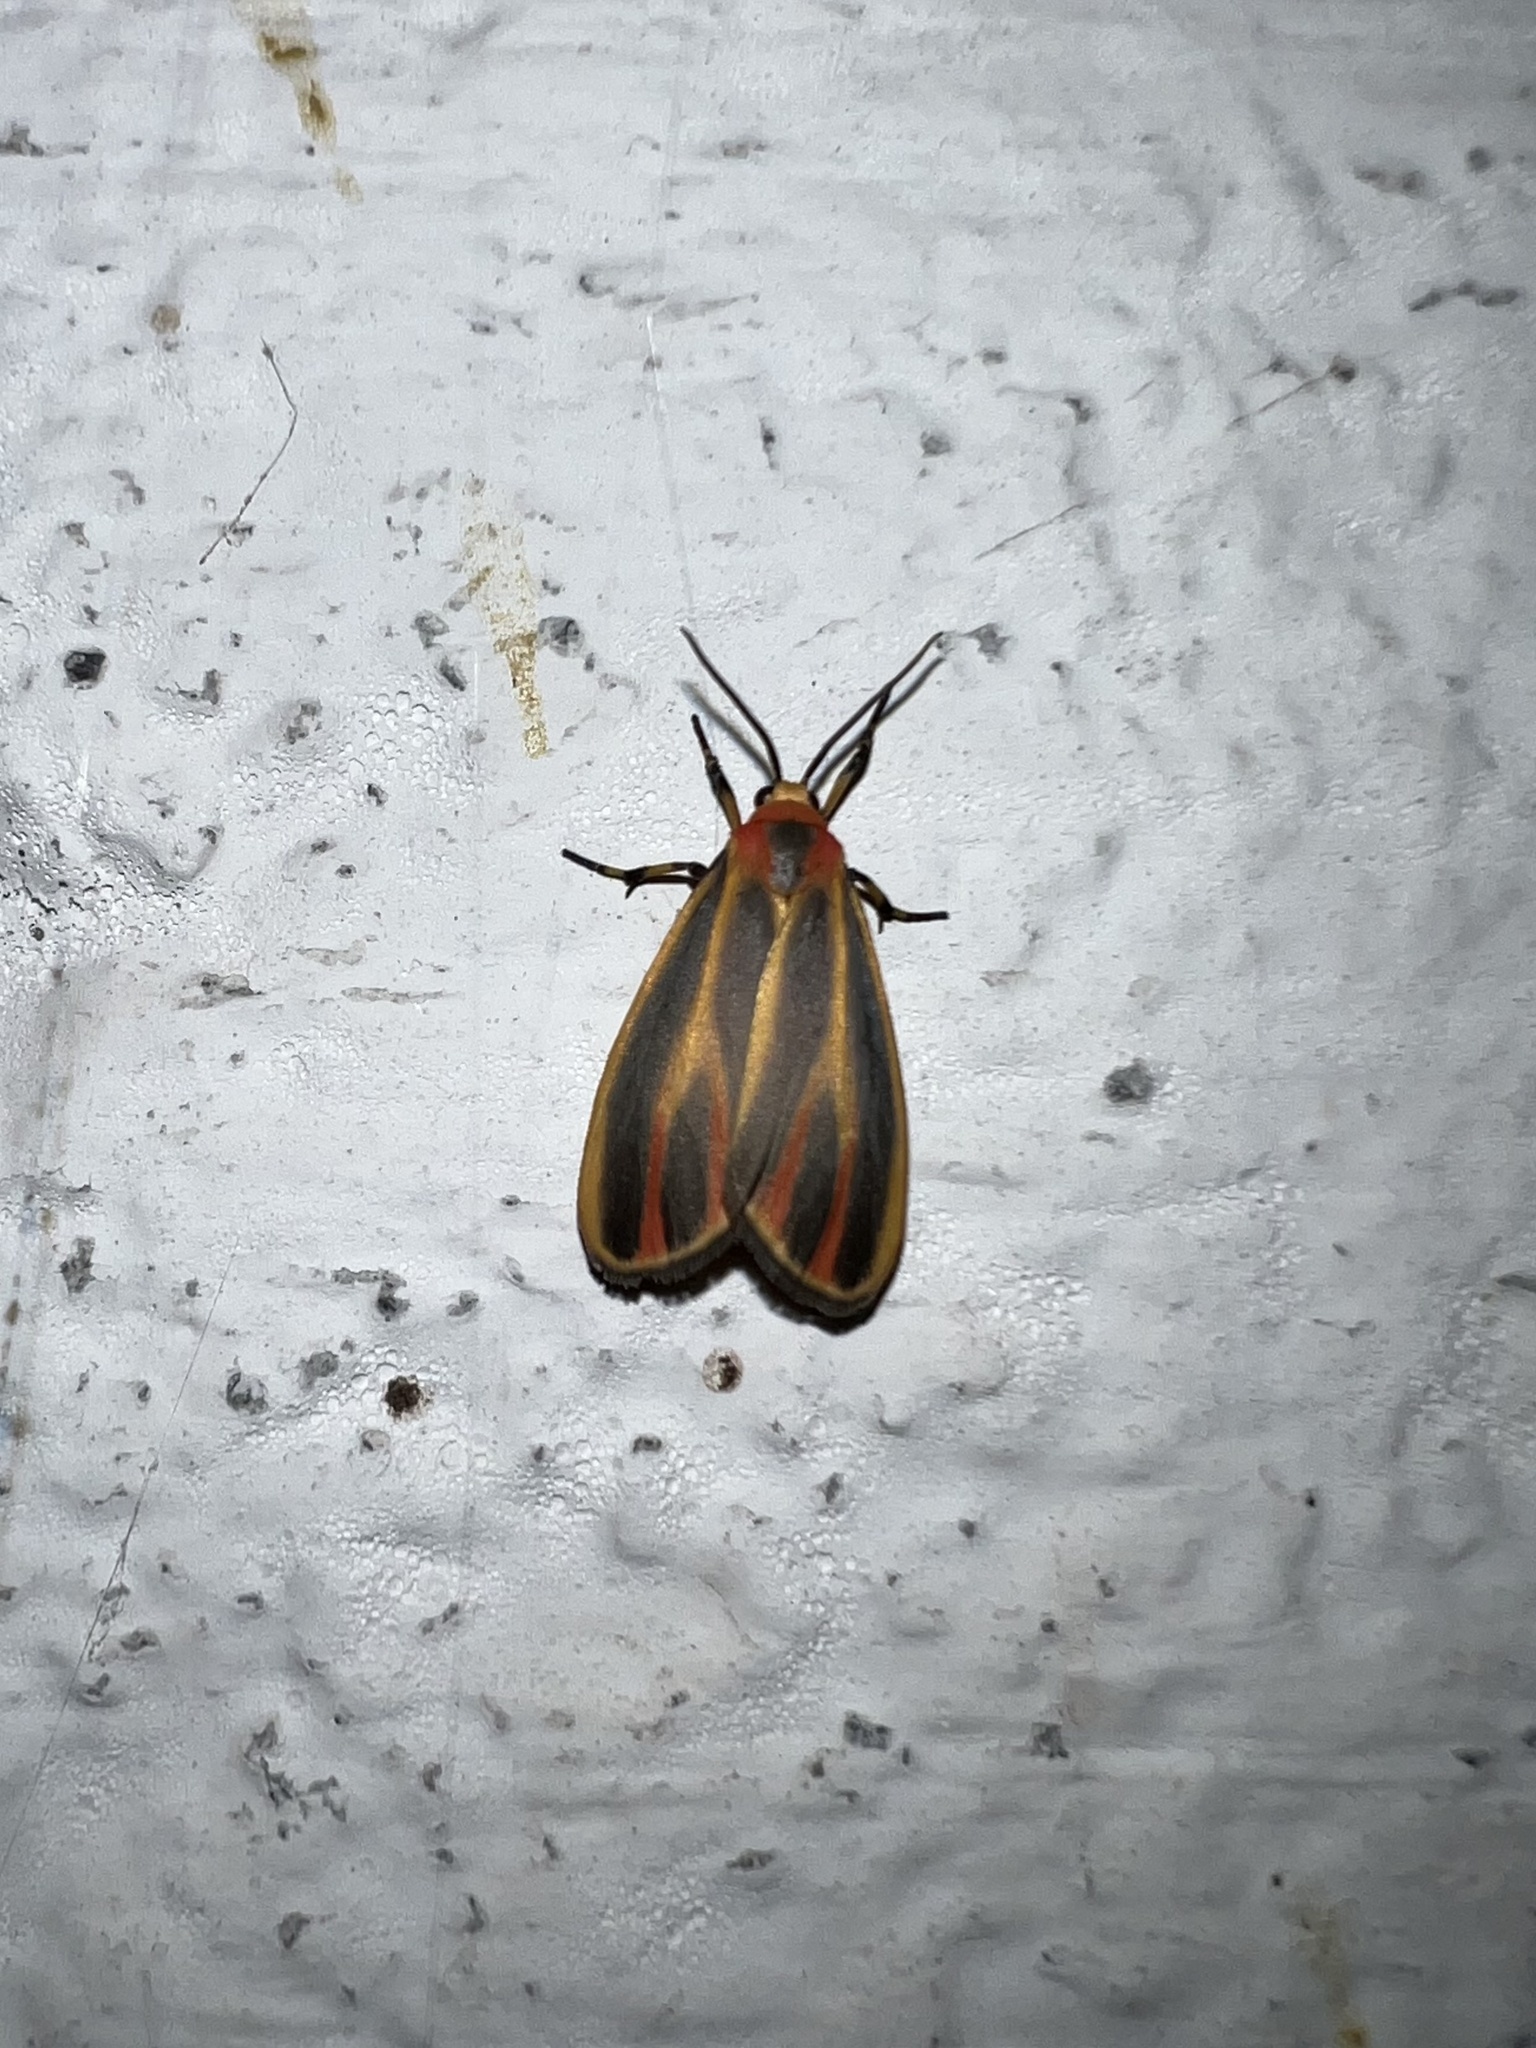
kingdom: Animalia
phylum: Arthropoda
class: Insecta
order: Lepidoptera
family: Erebidae
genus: Hypoprepia
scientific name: Hypoprepia fucosa
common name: Painted lichen moth
